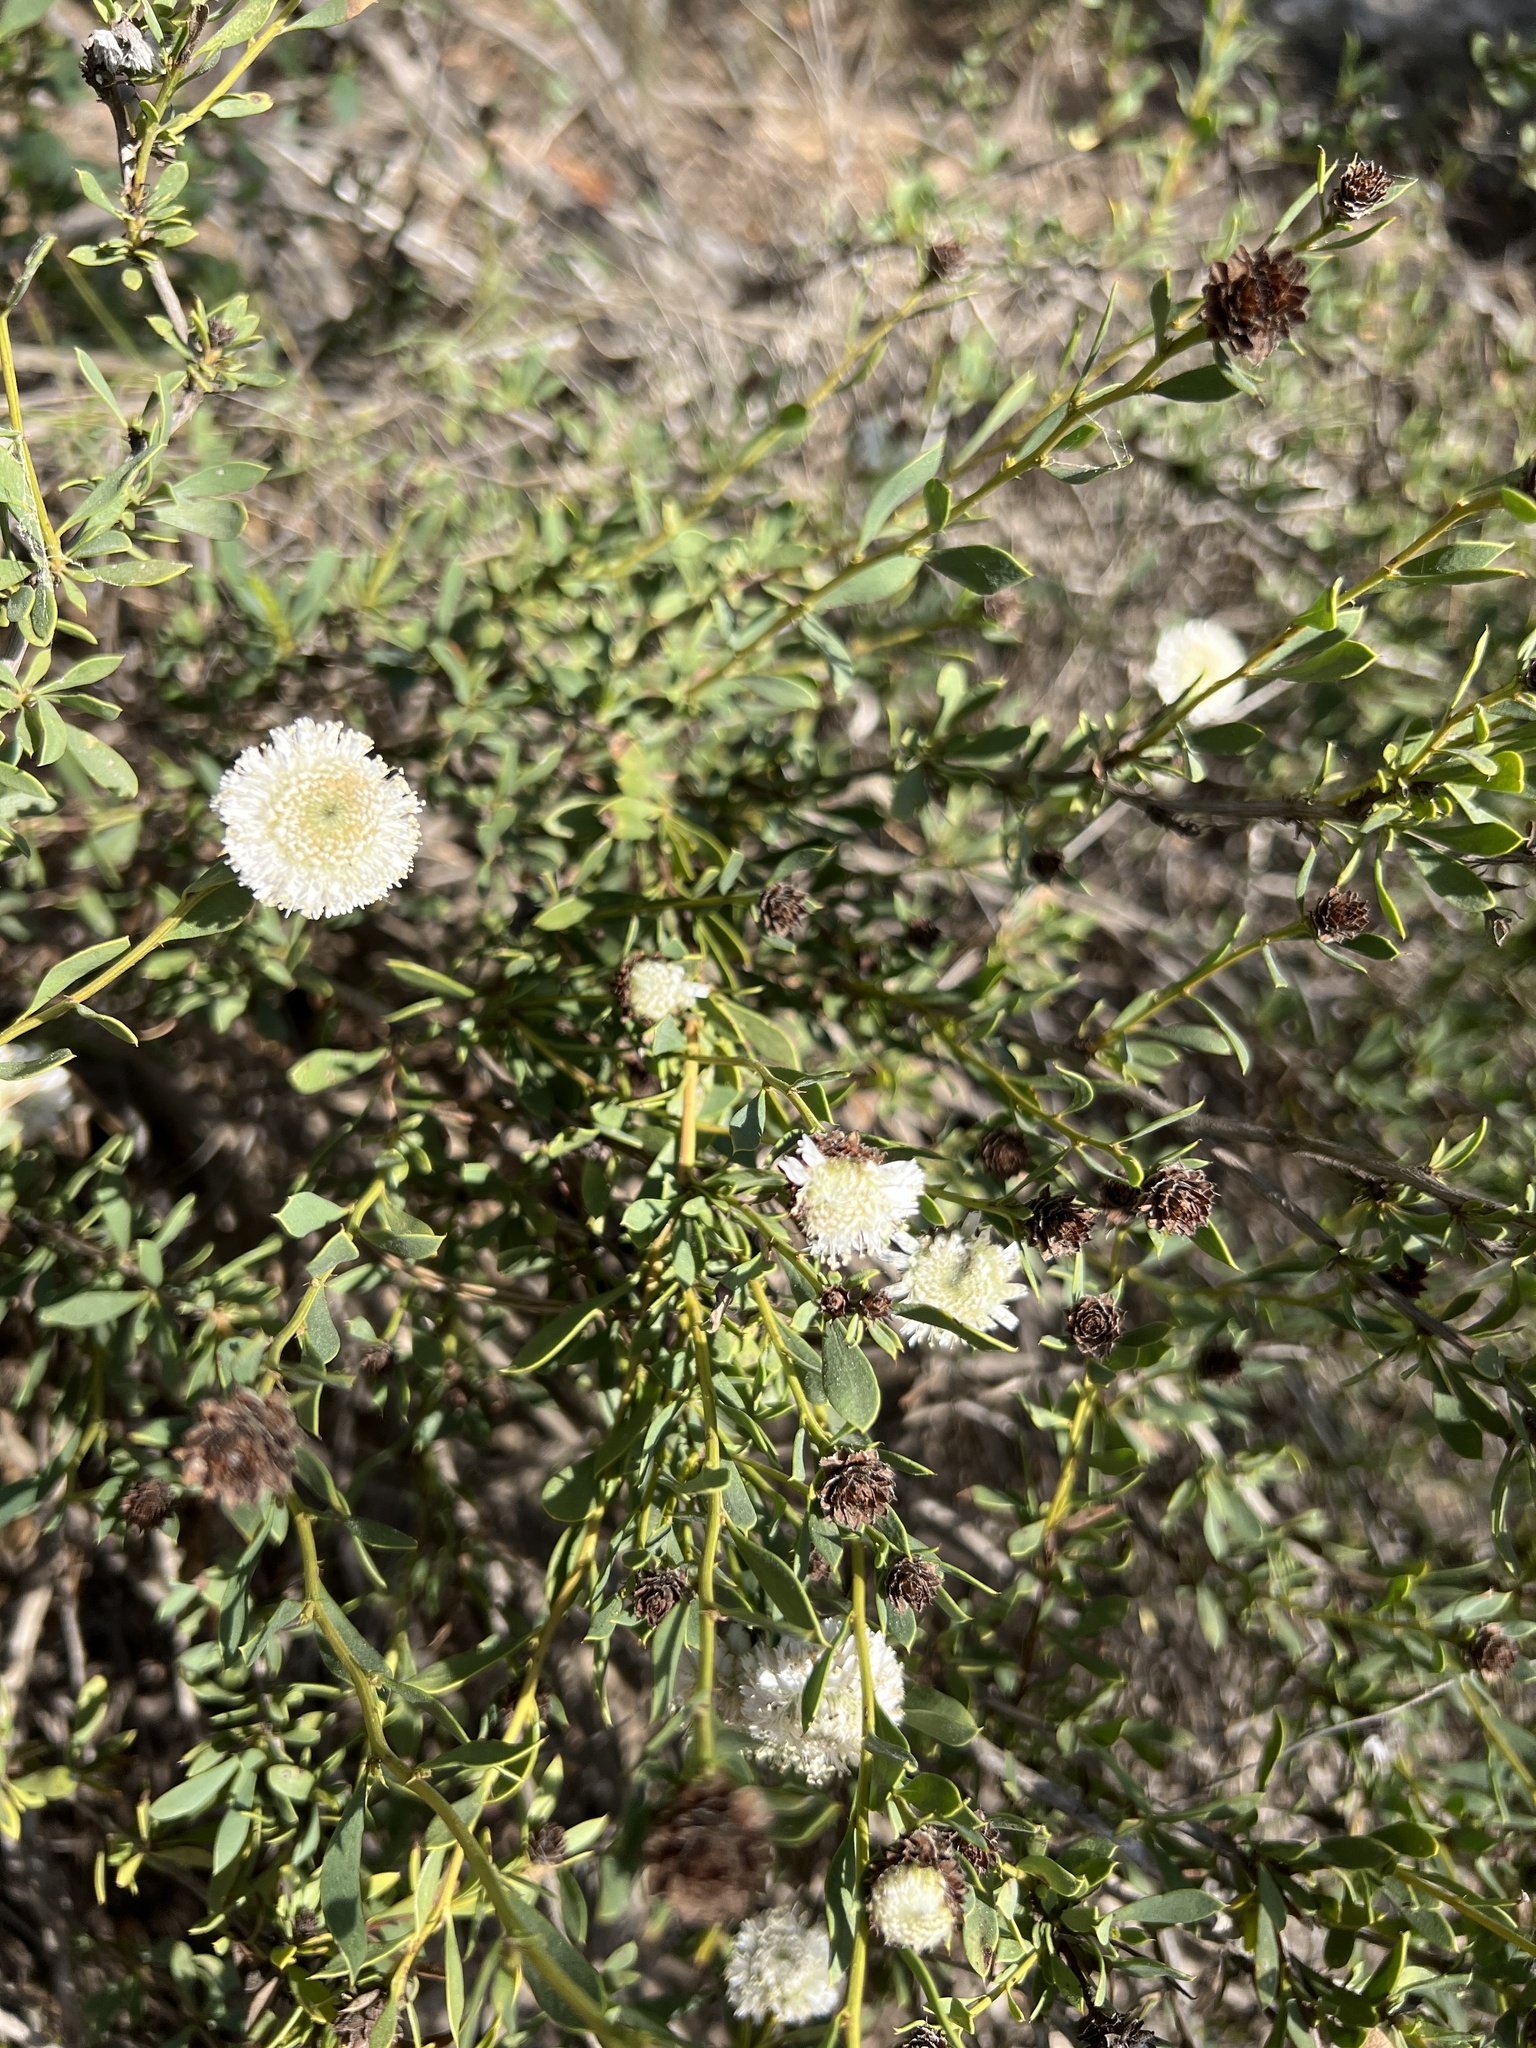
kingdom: Plantae
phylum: Tracheophyta
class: Magnoliopsida
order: Lamiales
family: Plantaginaceae
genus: Globularia
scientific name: Globularia alypum
